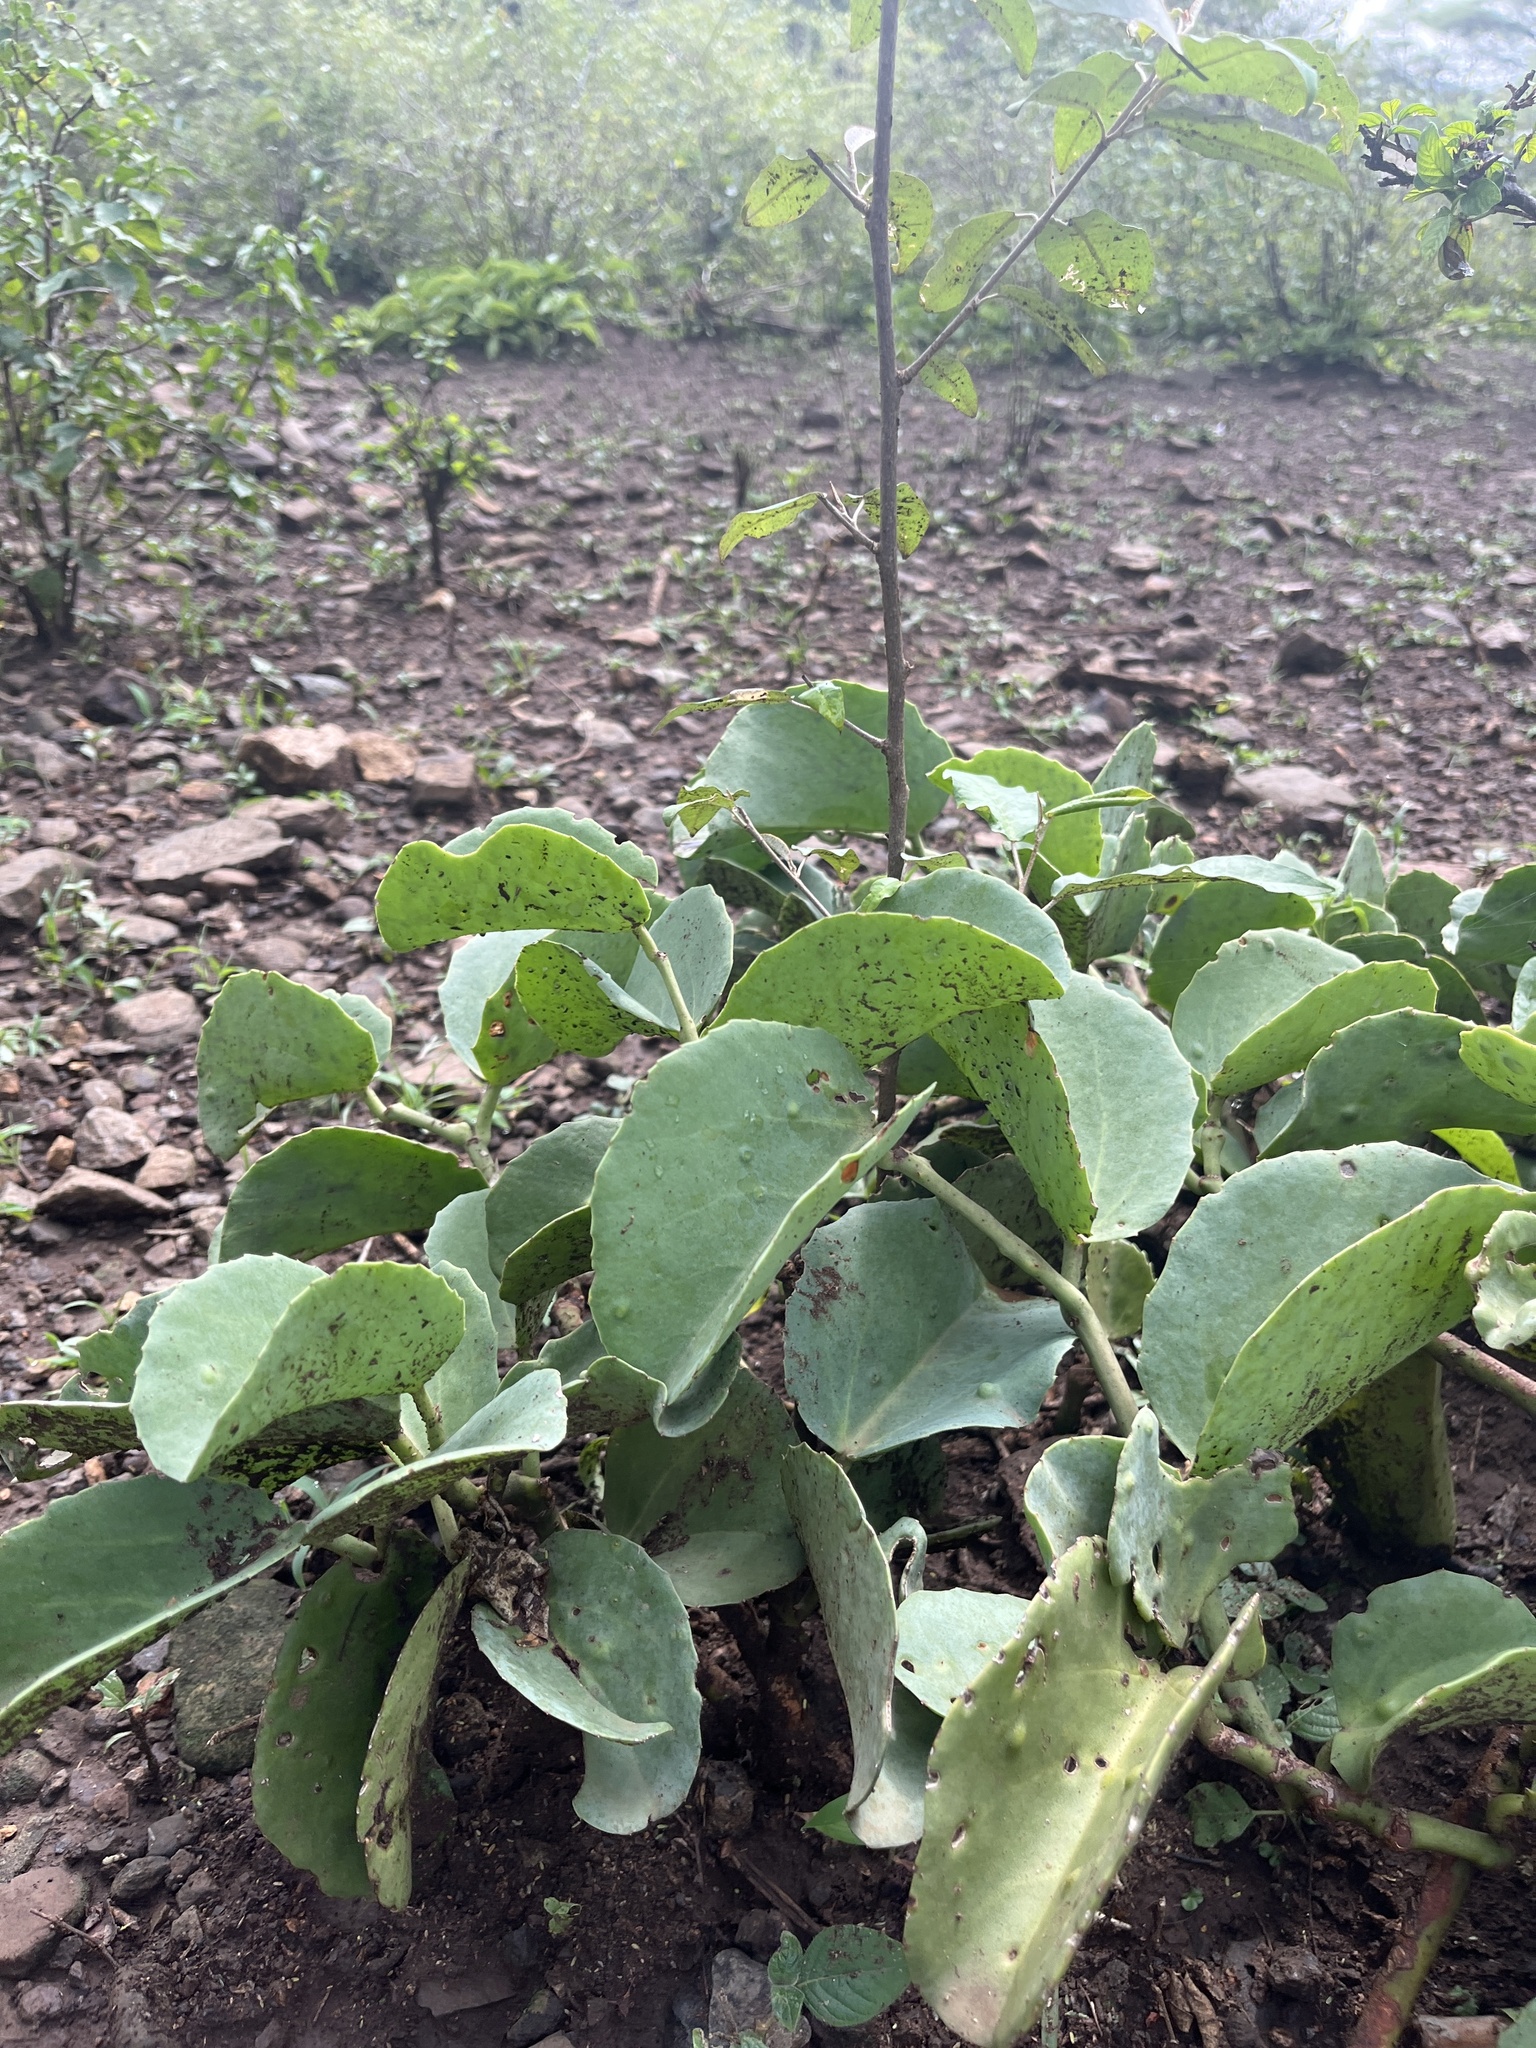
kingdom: Plantae
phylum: Tracheophyta
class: Magnoliopsida
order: Vitales
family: Vitaceae
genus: Cissus
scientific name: Cissus rotundifolia
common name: Arabian wax cissus
